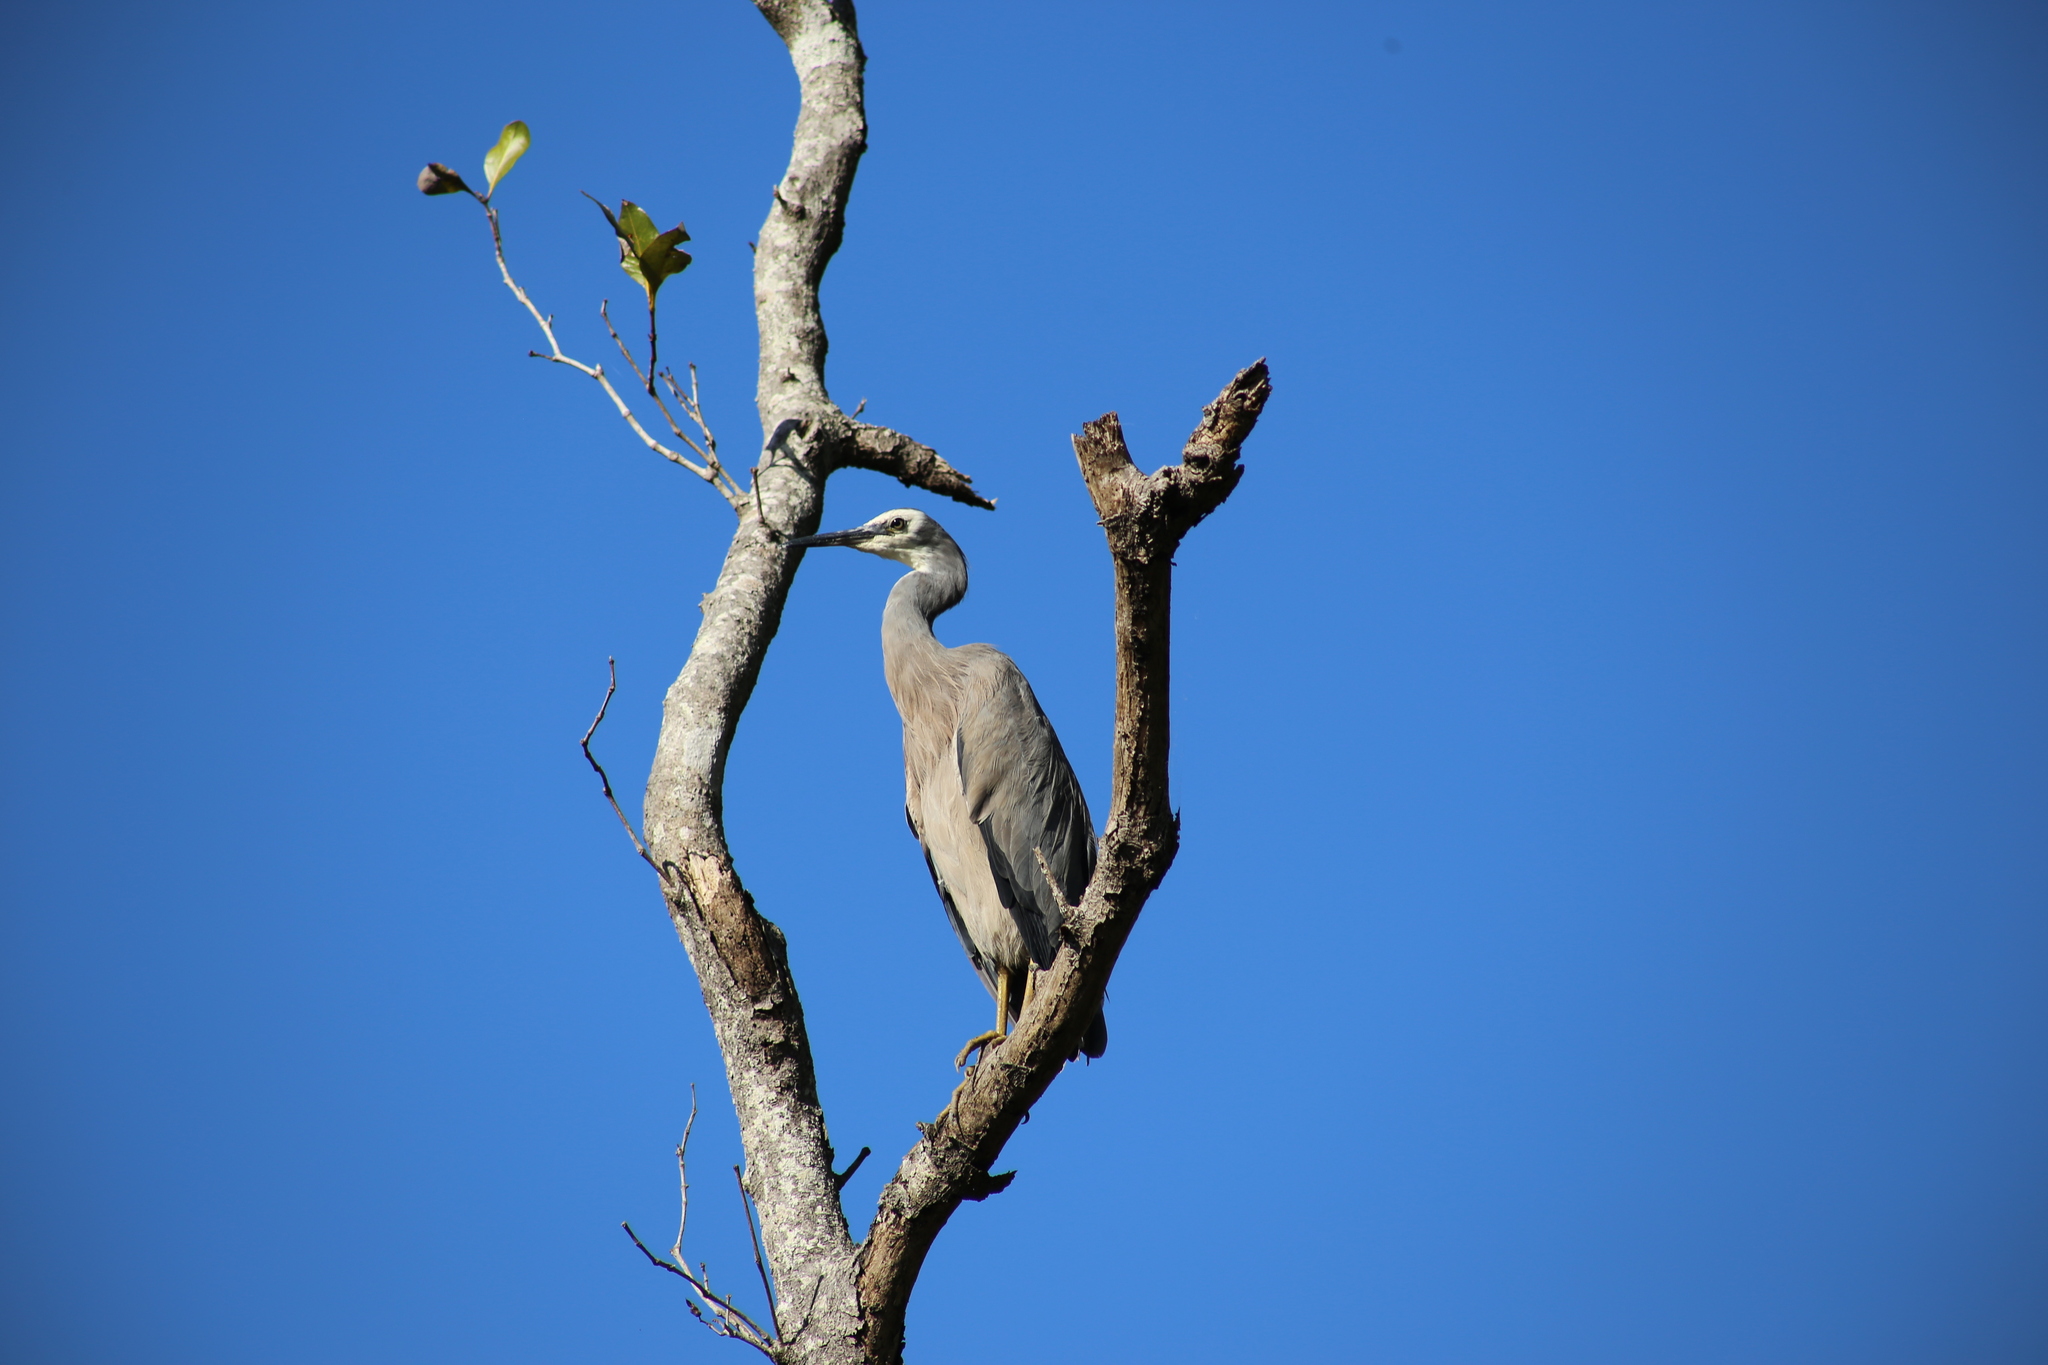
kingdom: Animalia
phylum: Chordata
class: Aves
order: Pelecaniformes
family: Ardeidae
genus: Egretta
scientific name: Egretta novaehollandiae
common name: White-faced heron
